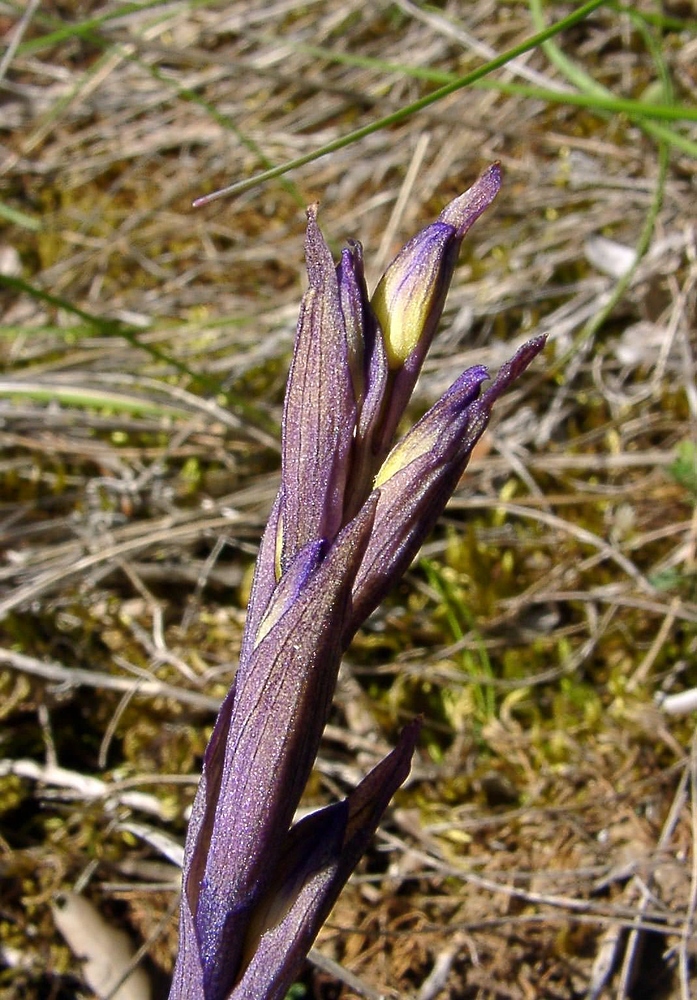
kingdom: Plantae
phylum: Tracheophyta
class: Liliopsida
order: Asparagales
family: Orchidaceae
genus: Limodorum
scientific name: Limodorum abortivum
